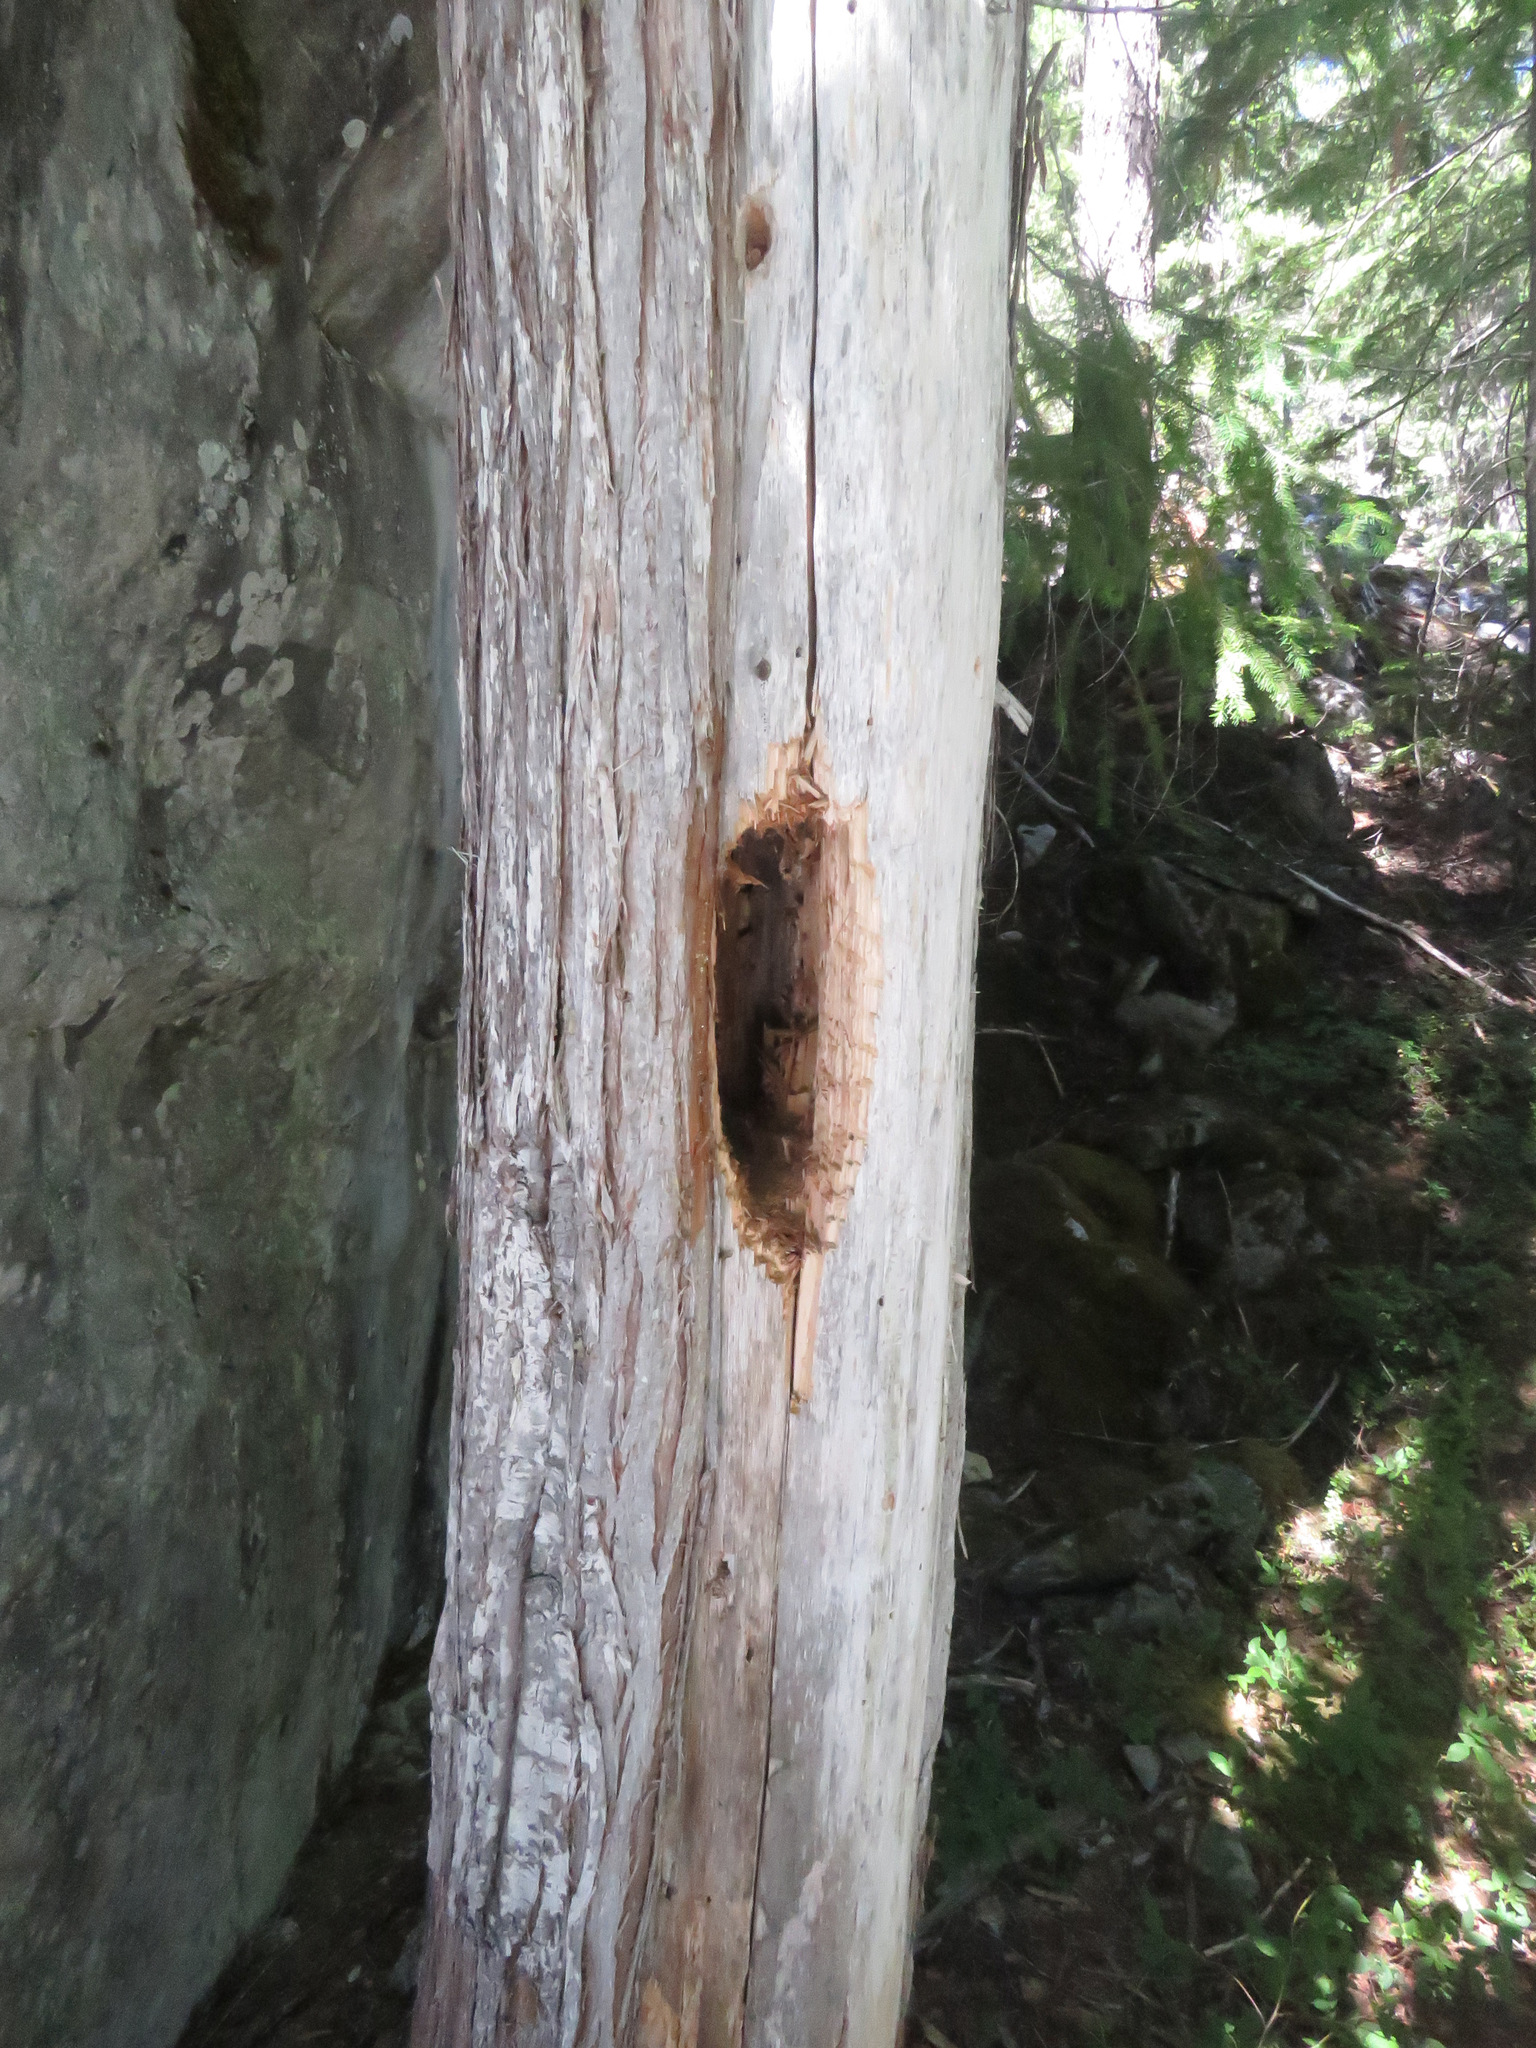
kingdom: Animalia
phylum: Chordata
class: Aves
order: Piciformes
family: Picidae
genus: Dryocopus
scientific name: Dryocopus pileatus
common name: Pileated woodpecker
